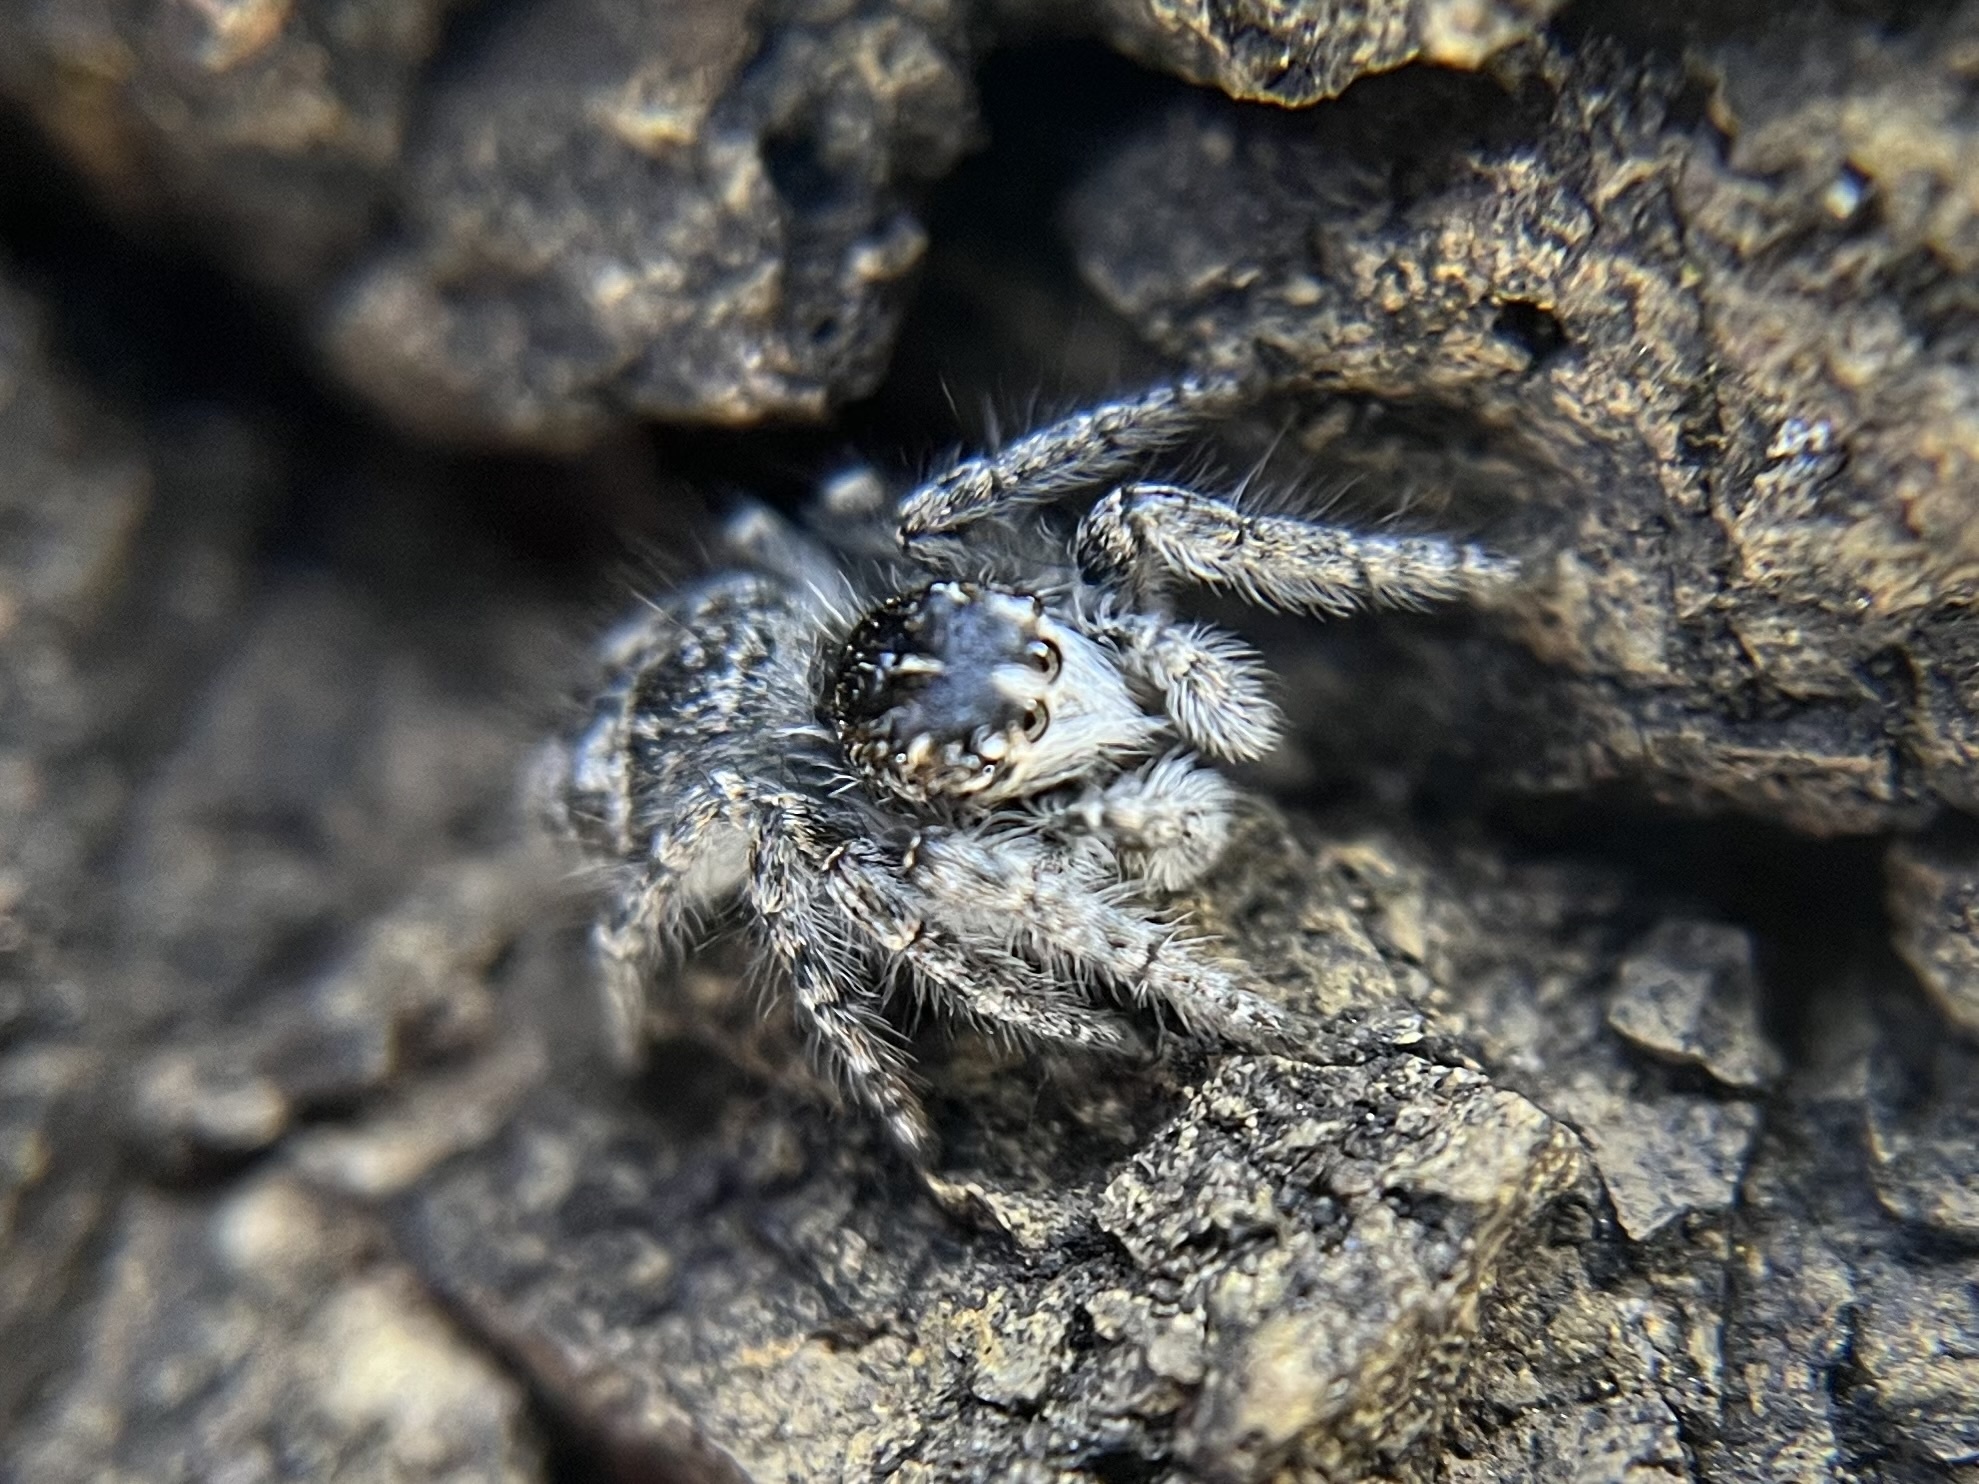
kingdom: Animalia
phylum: Arthropoda
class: Arachnida
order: Araneae
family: Salticidae
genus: Philaeus
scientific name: Philaeus chrysops
